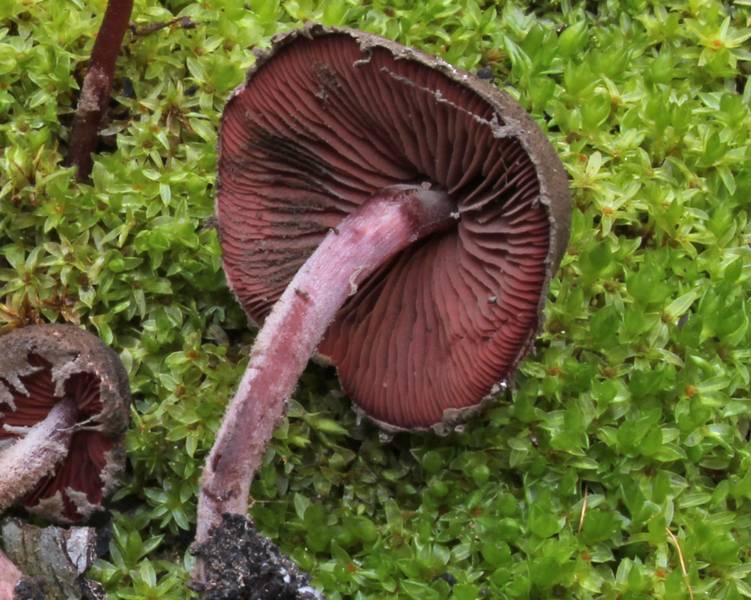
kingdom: Fungi
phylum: Basidiomycota
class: Agaricomycetes
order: Agaricales
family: Agaricaceae
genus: Melanophyllum
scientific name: Melanophyllum haematospermum
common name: Redspored dapperling
